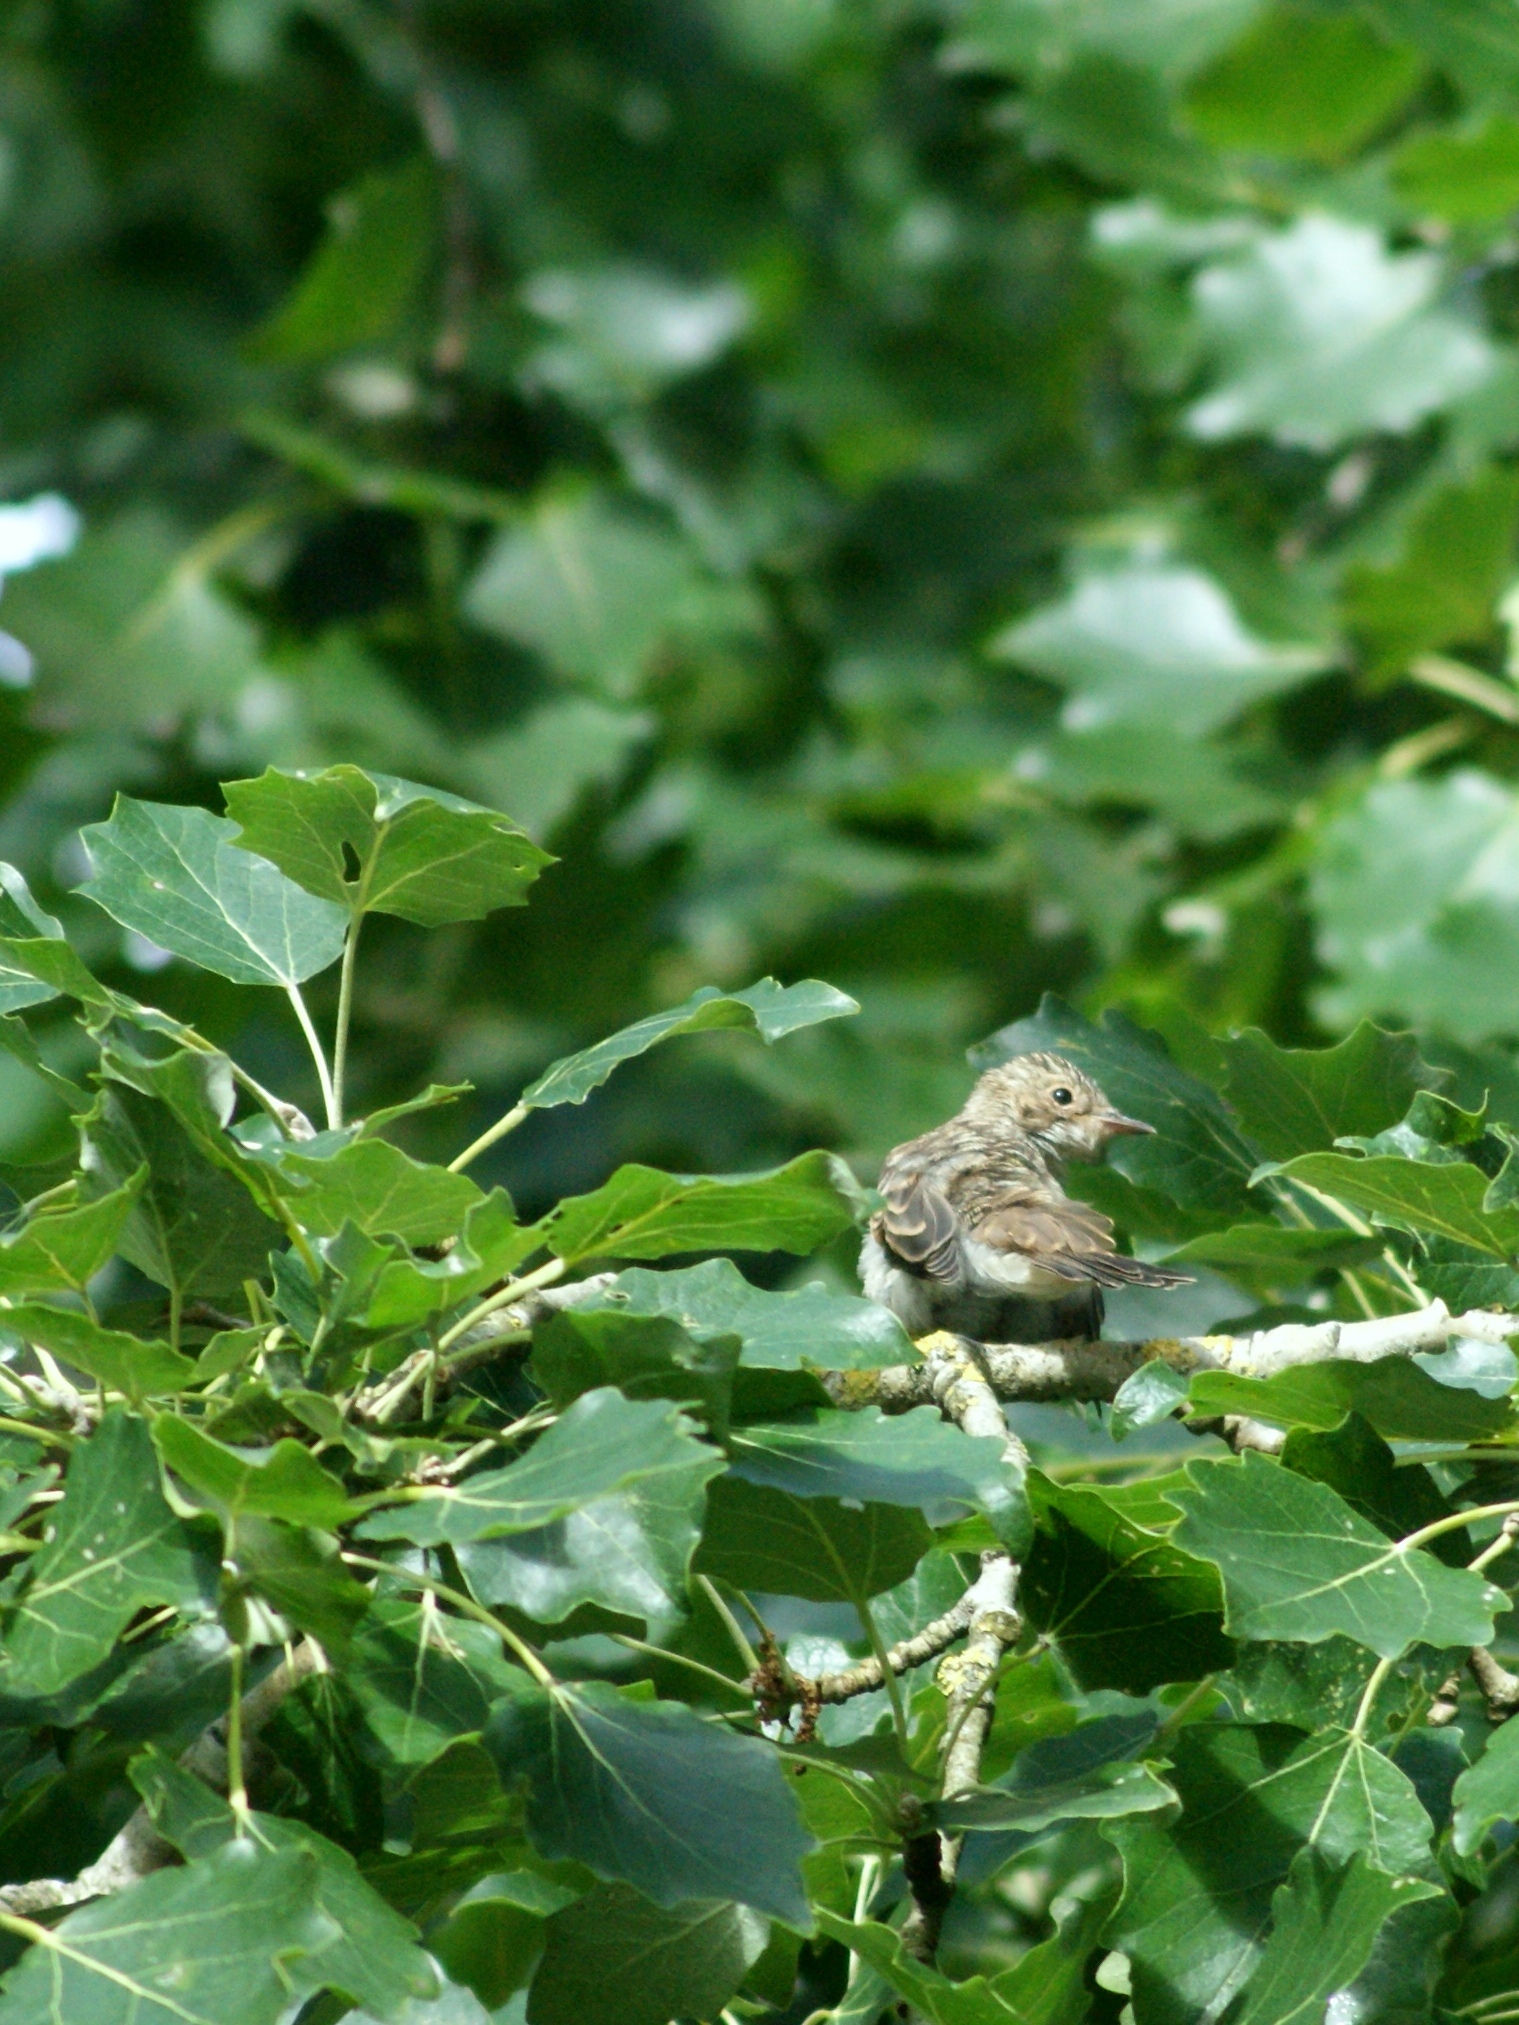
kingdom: Animalia
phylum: Chordata
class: Aves
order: Passeriformes
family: Muscicapidae
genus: Muscicapa
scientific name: Muscicapa striata
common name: Spotted flycatcher
